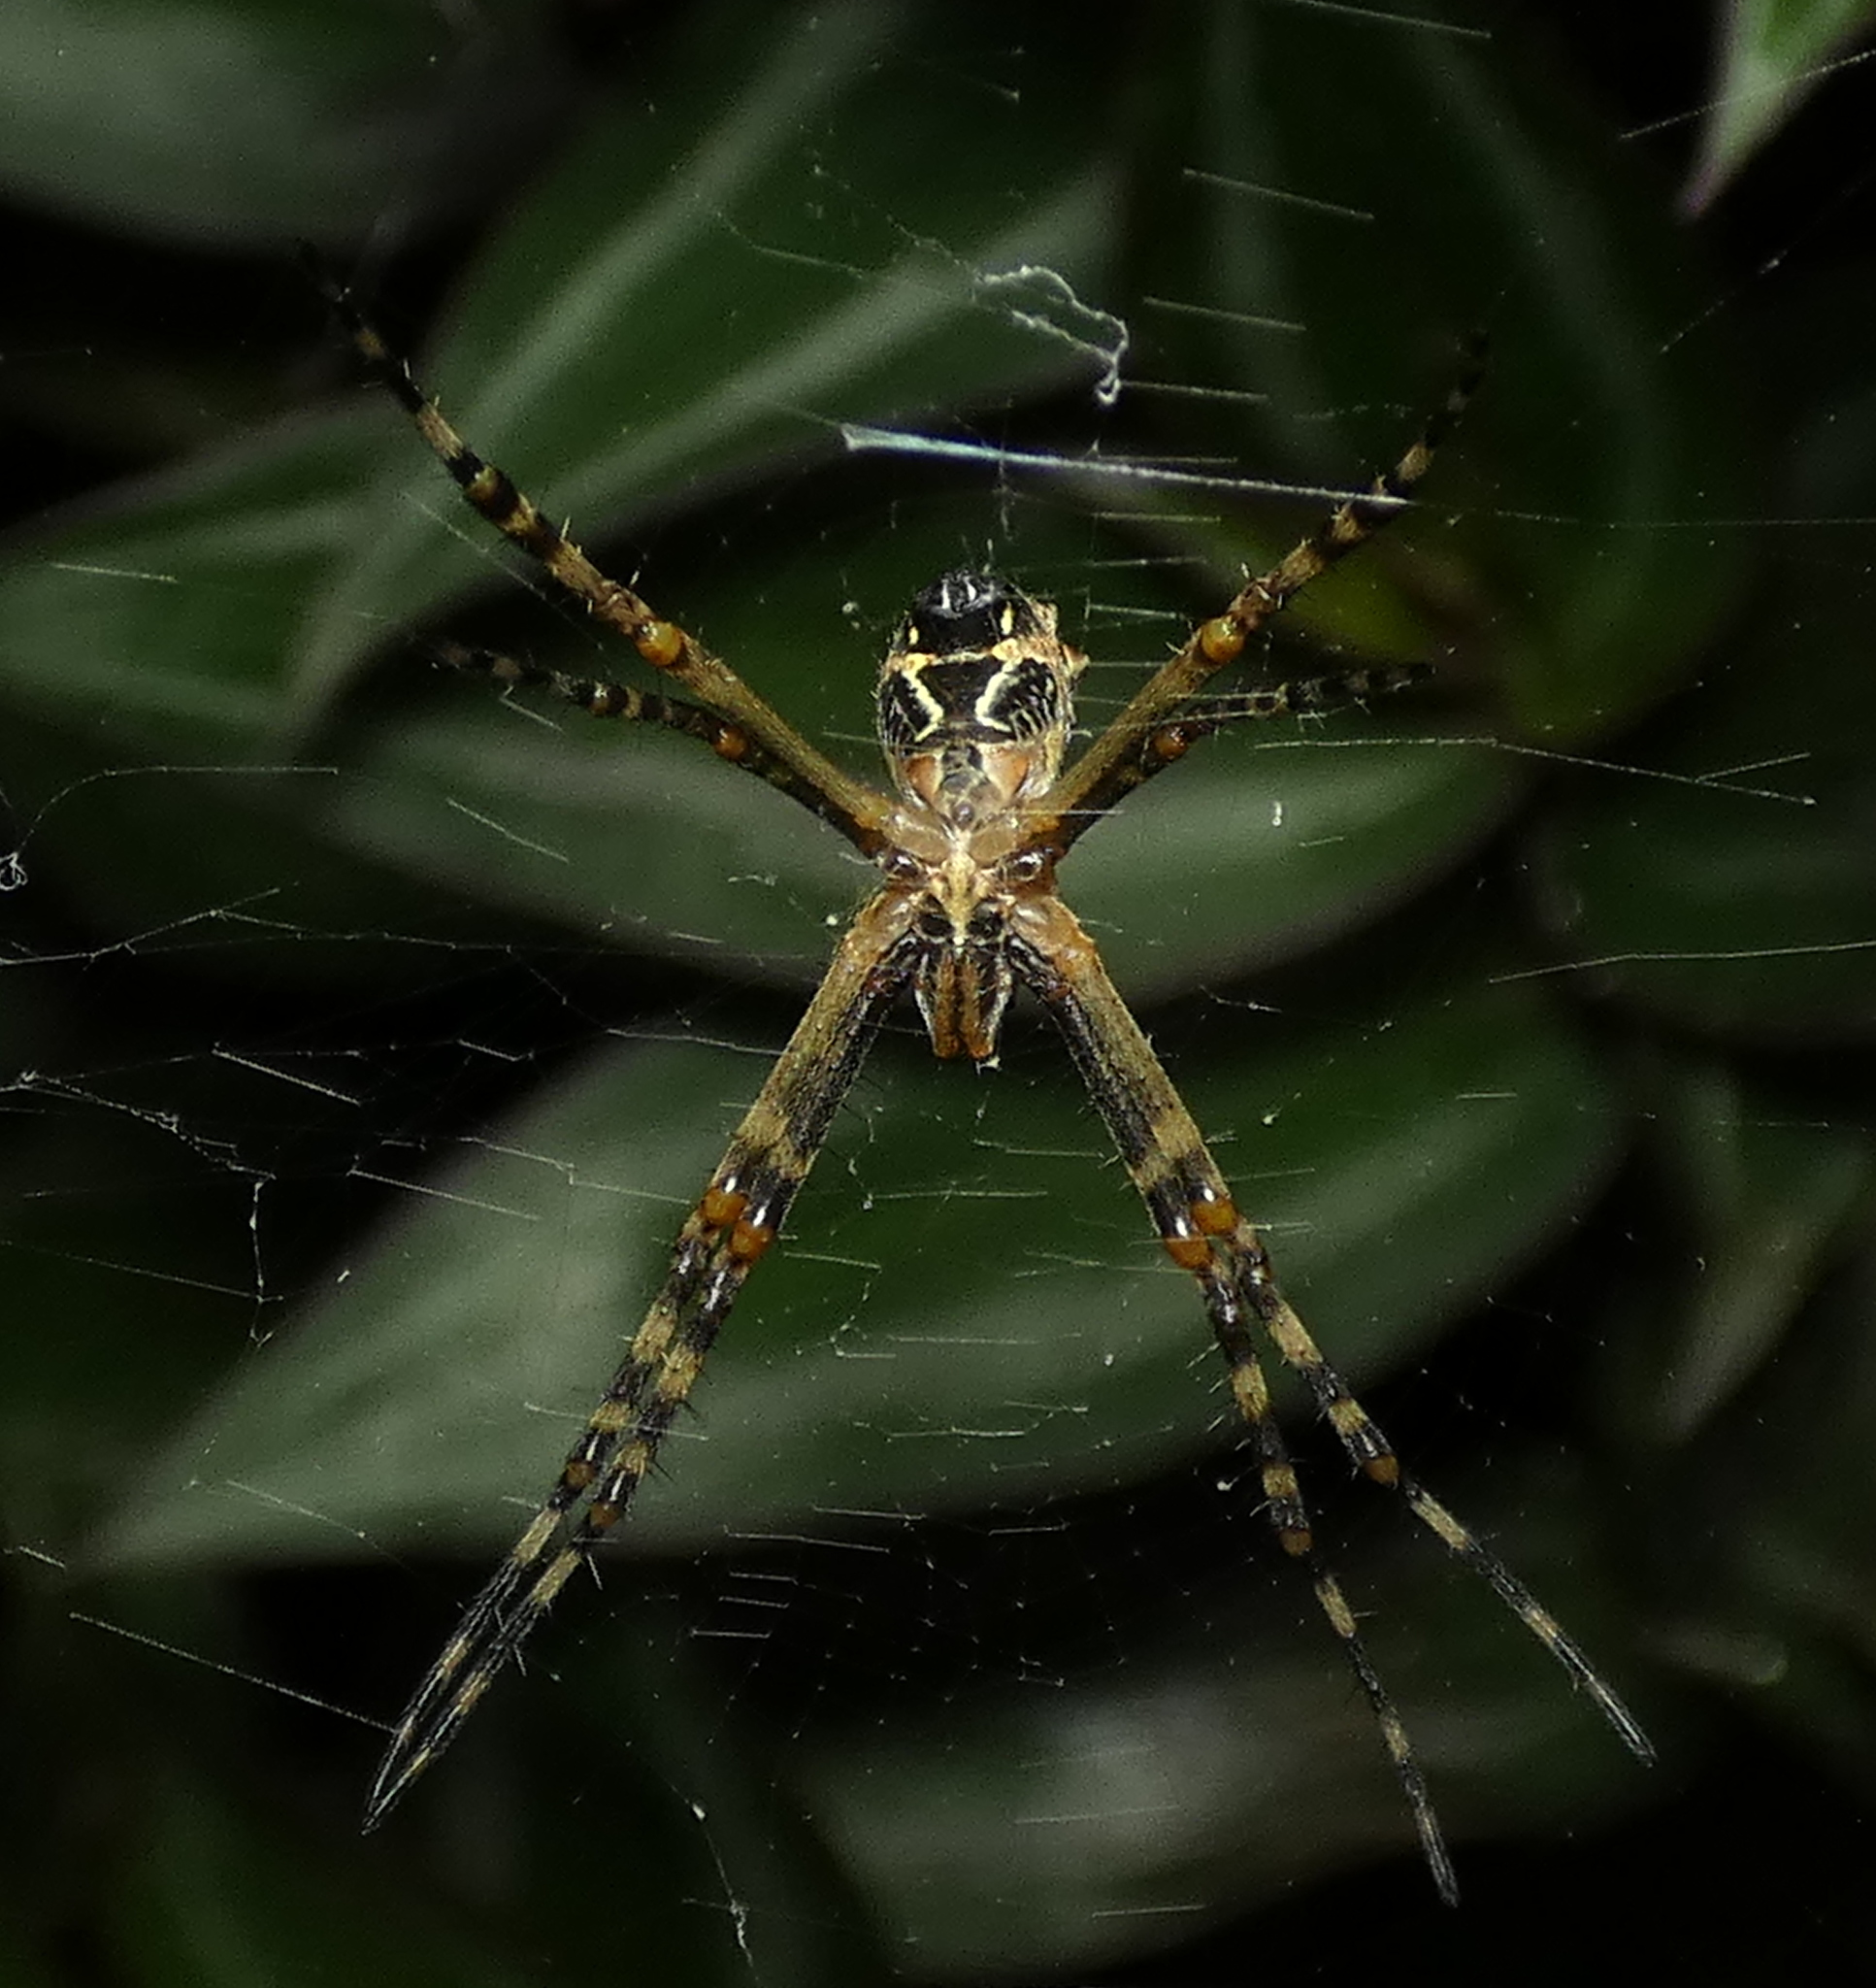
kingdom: Animalia
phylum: Arthropoda
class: Arachnida
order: Araneae
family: Araneidae
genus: Argiope
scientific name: Argiope argentata
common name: Orb weavers
